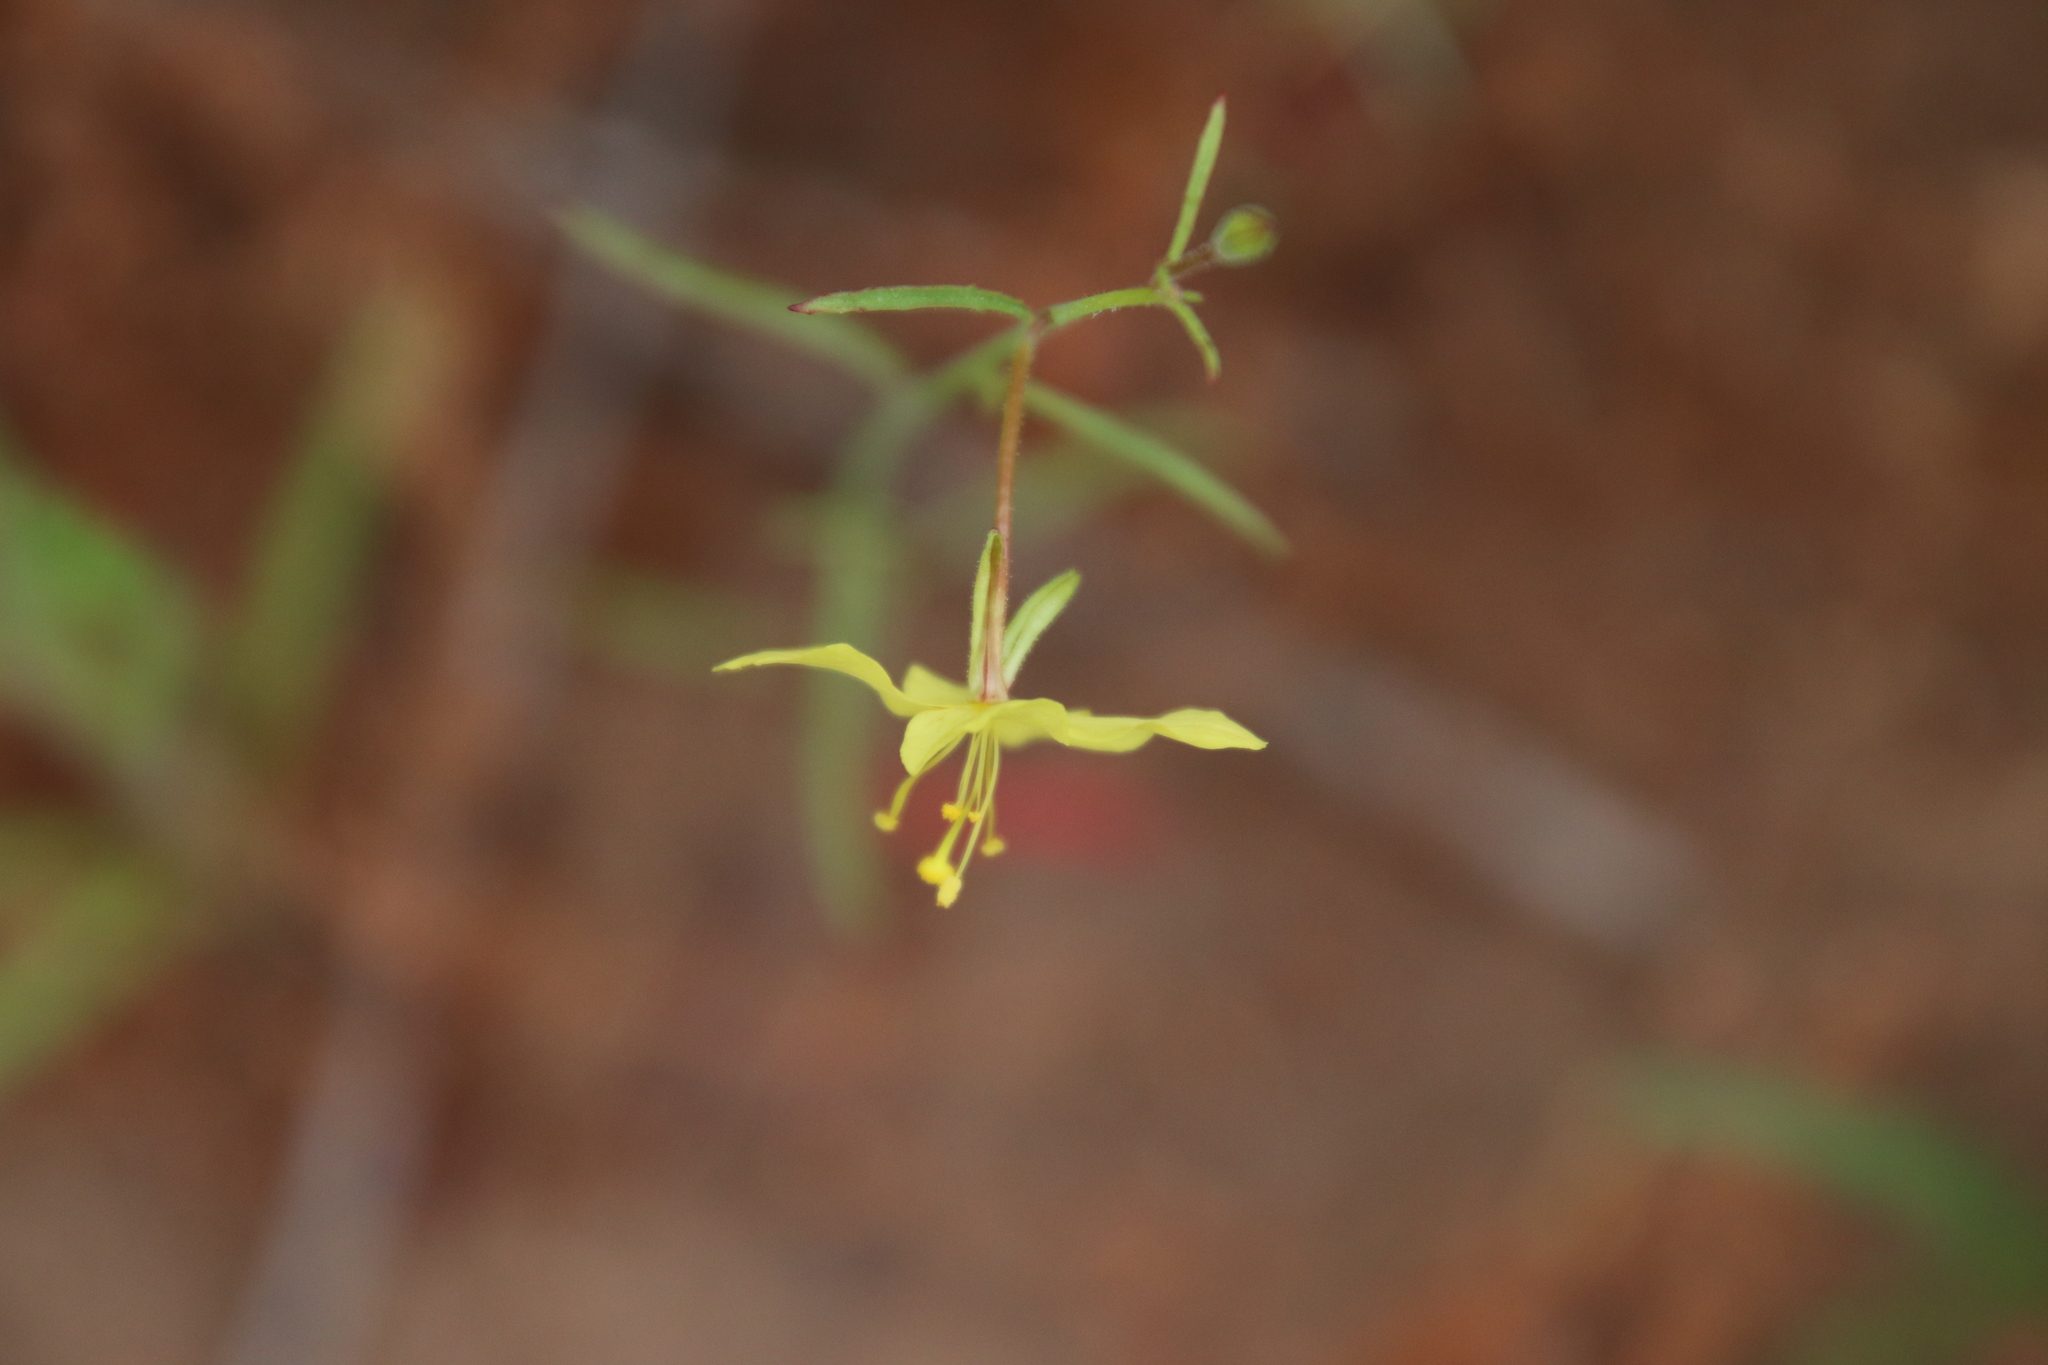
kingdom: Plantae
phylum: Tracheophyta
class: Magnoliopsida
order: Myrtales
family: Onagraceae
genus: Eulobus
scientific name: Eulobus californicus
